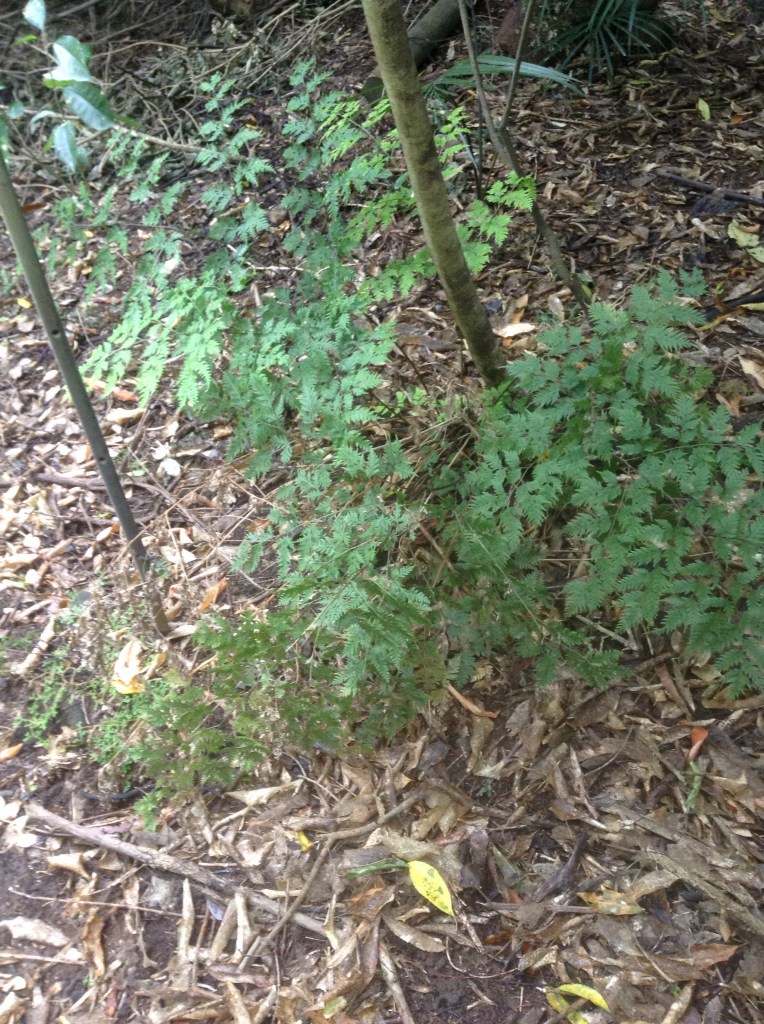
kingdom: Plantae
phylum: Tracheophyta
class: Polypodiopsida
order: Polypodiales
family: Pteridaceae
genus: Pteris
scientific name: Pteris macilenta
